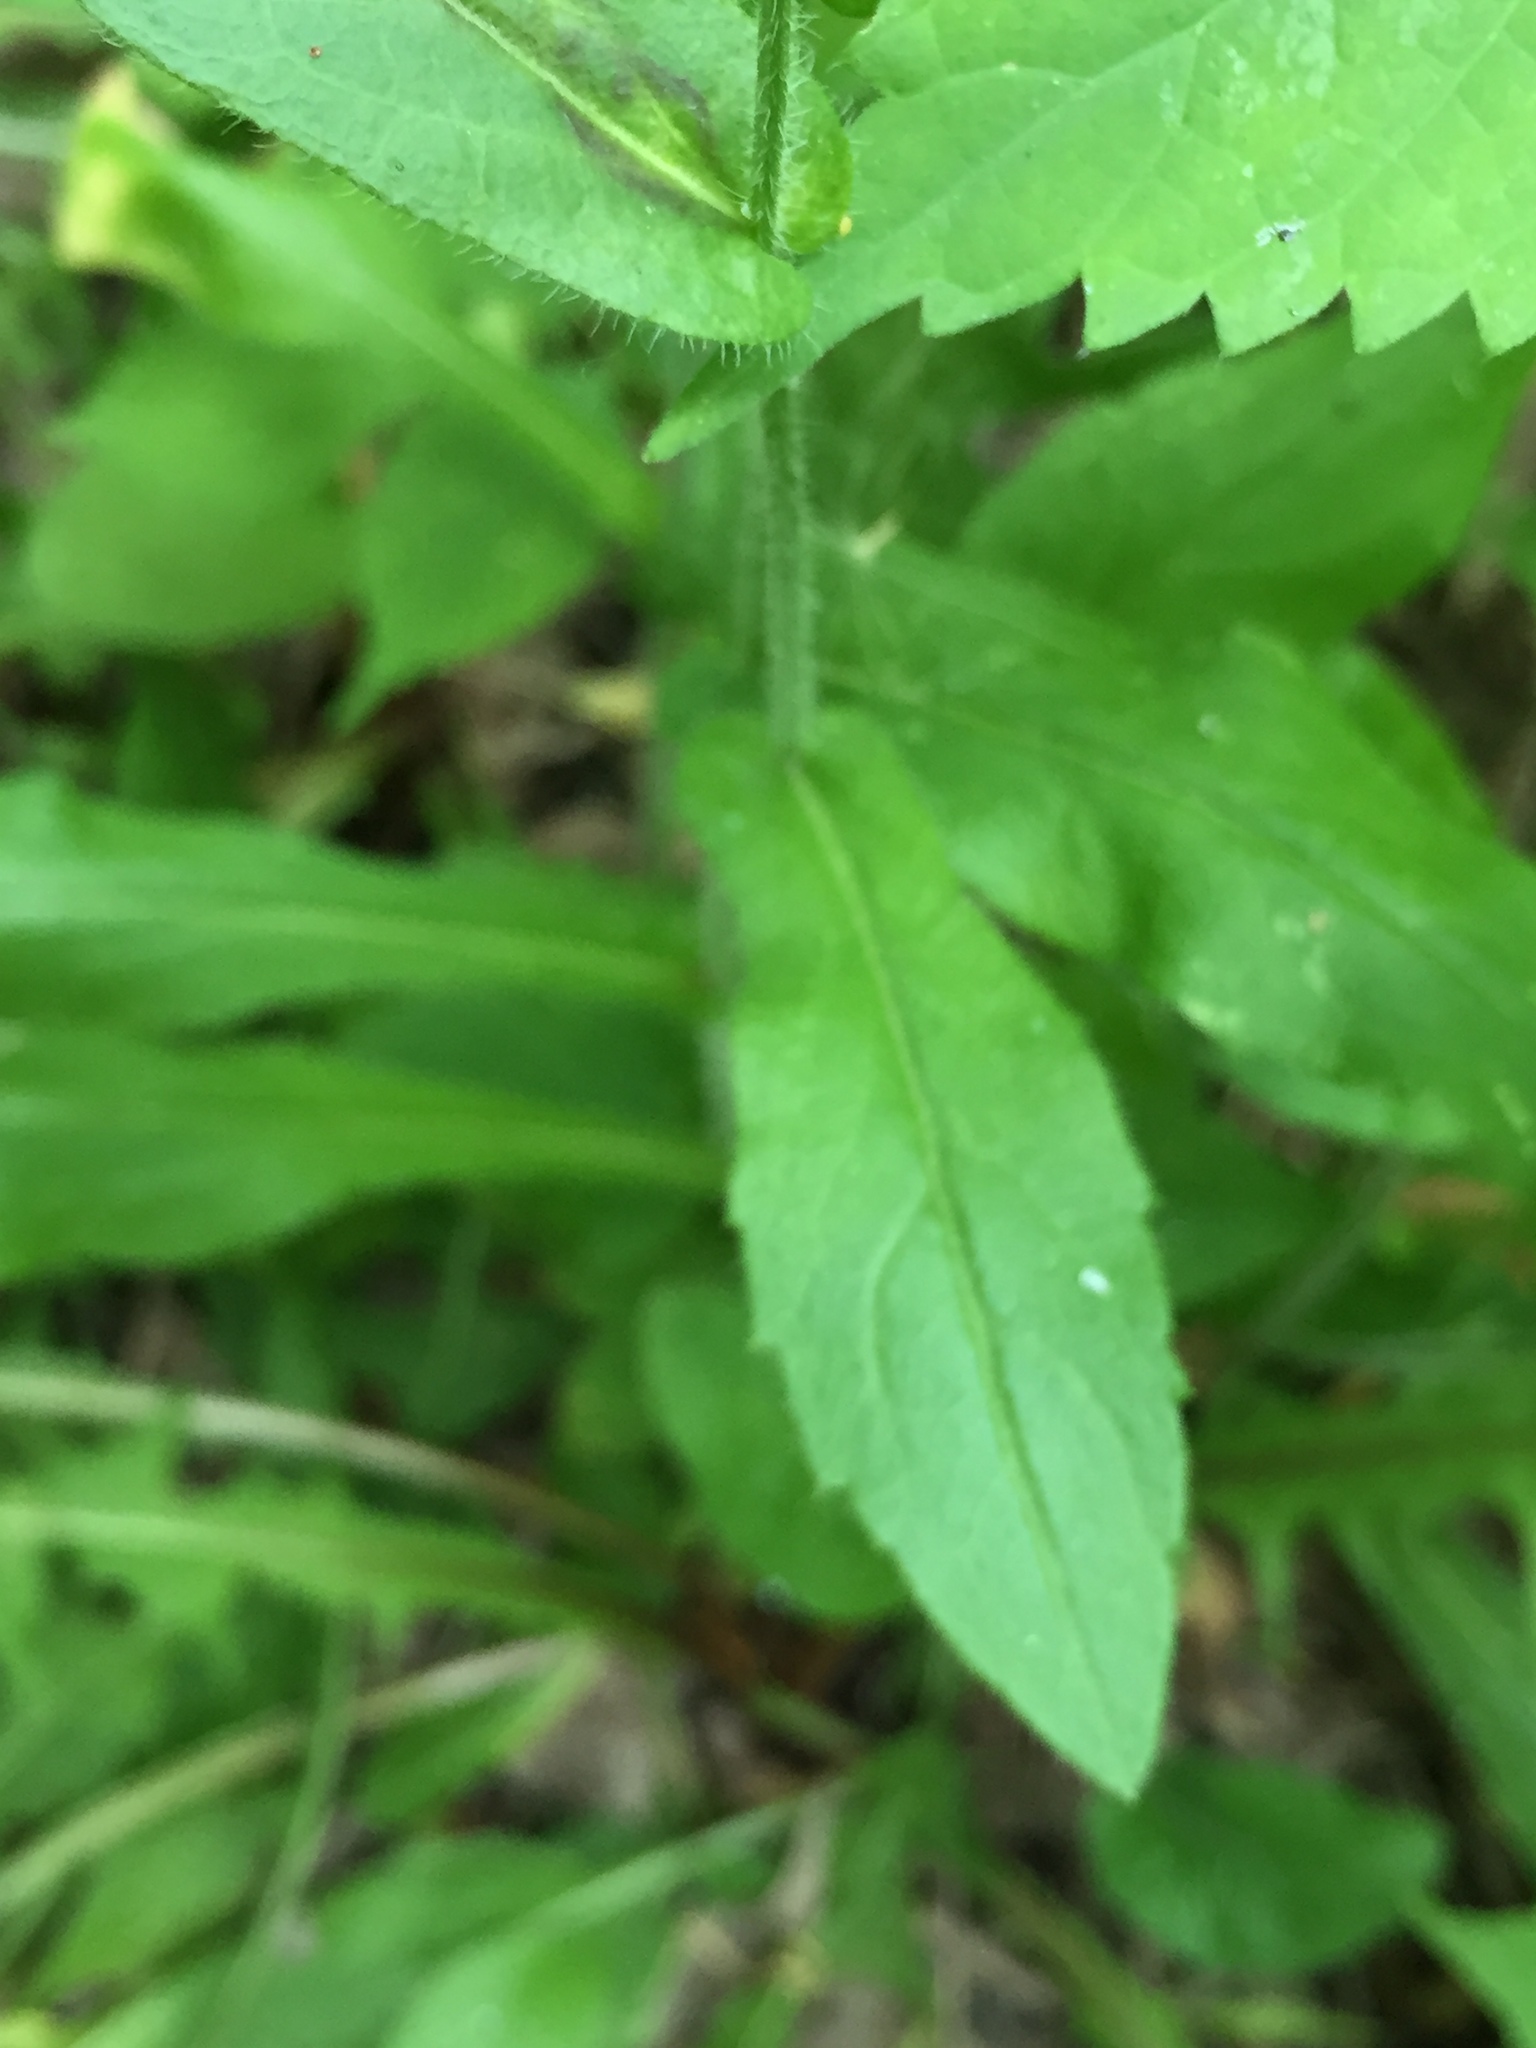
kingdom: Plantae
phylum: Tracheophyta
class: Magnoliopsida
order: Asterales
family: Asteraceae
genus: Erigeron
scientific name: Erigeron philadelphicus
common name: Robin's-plantain
